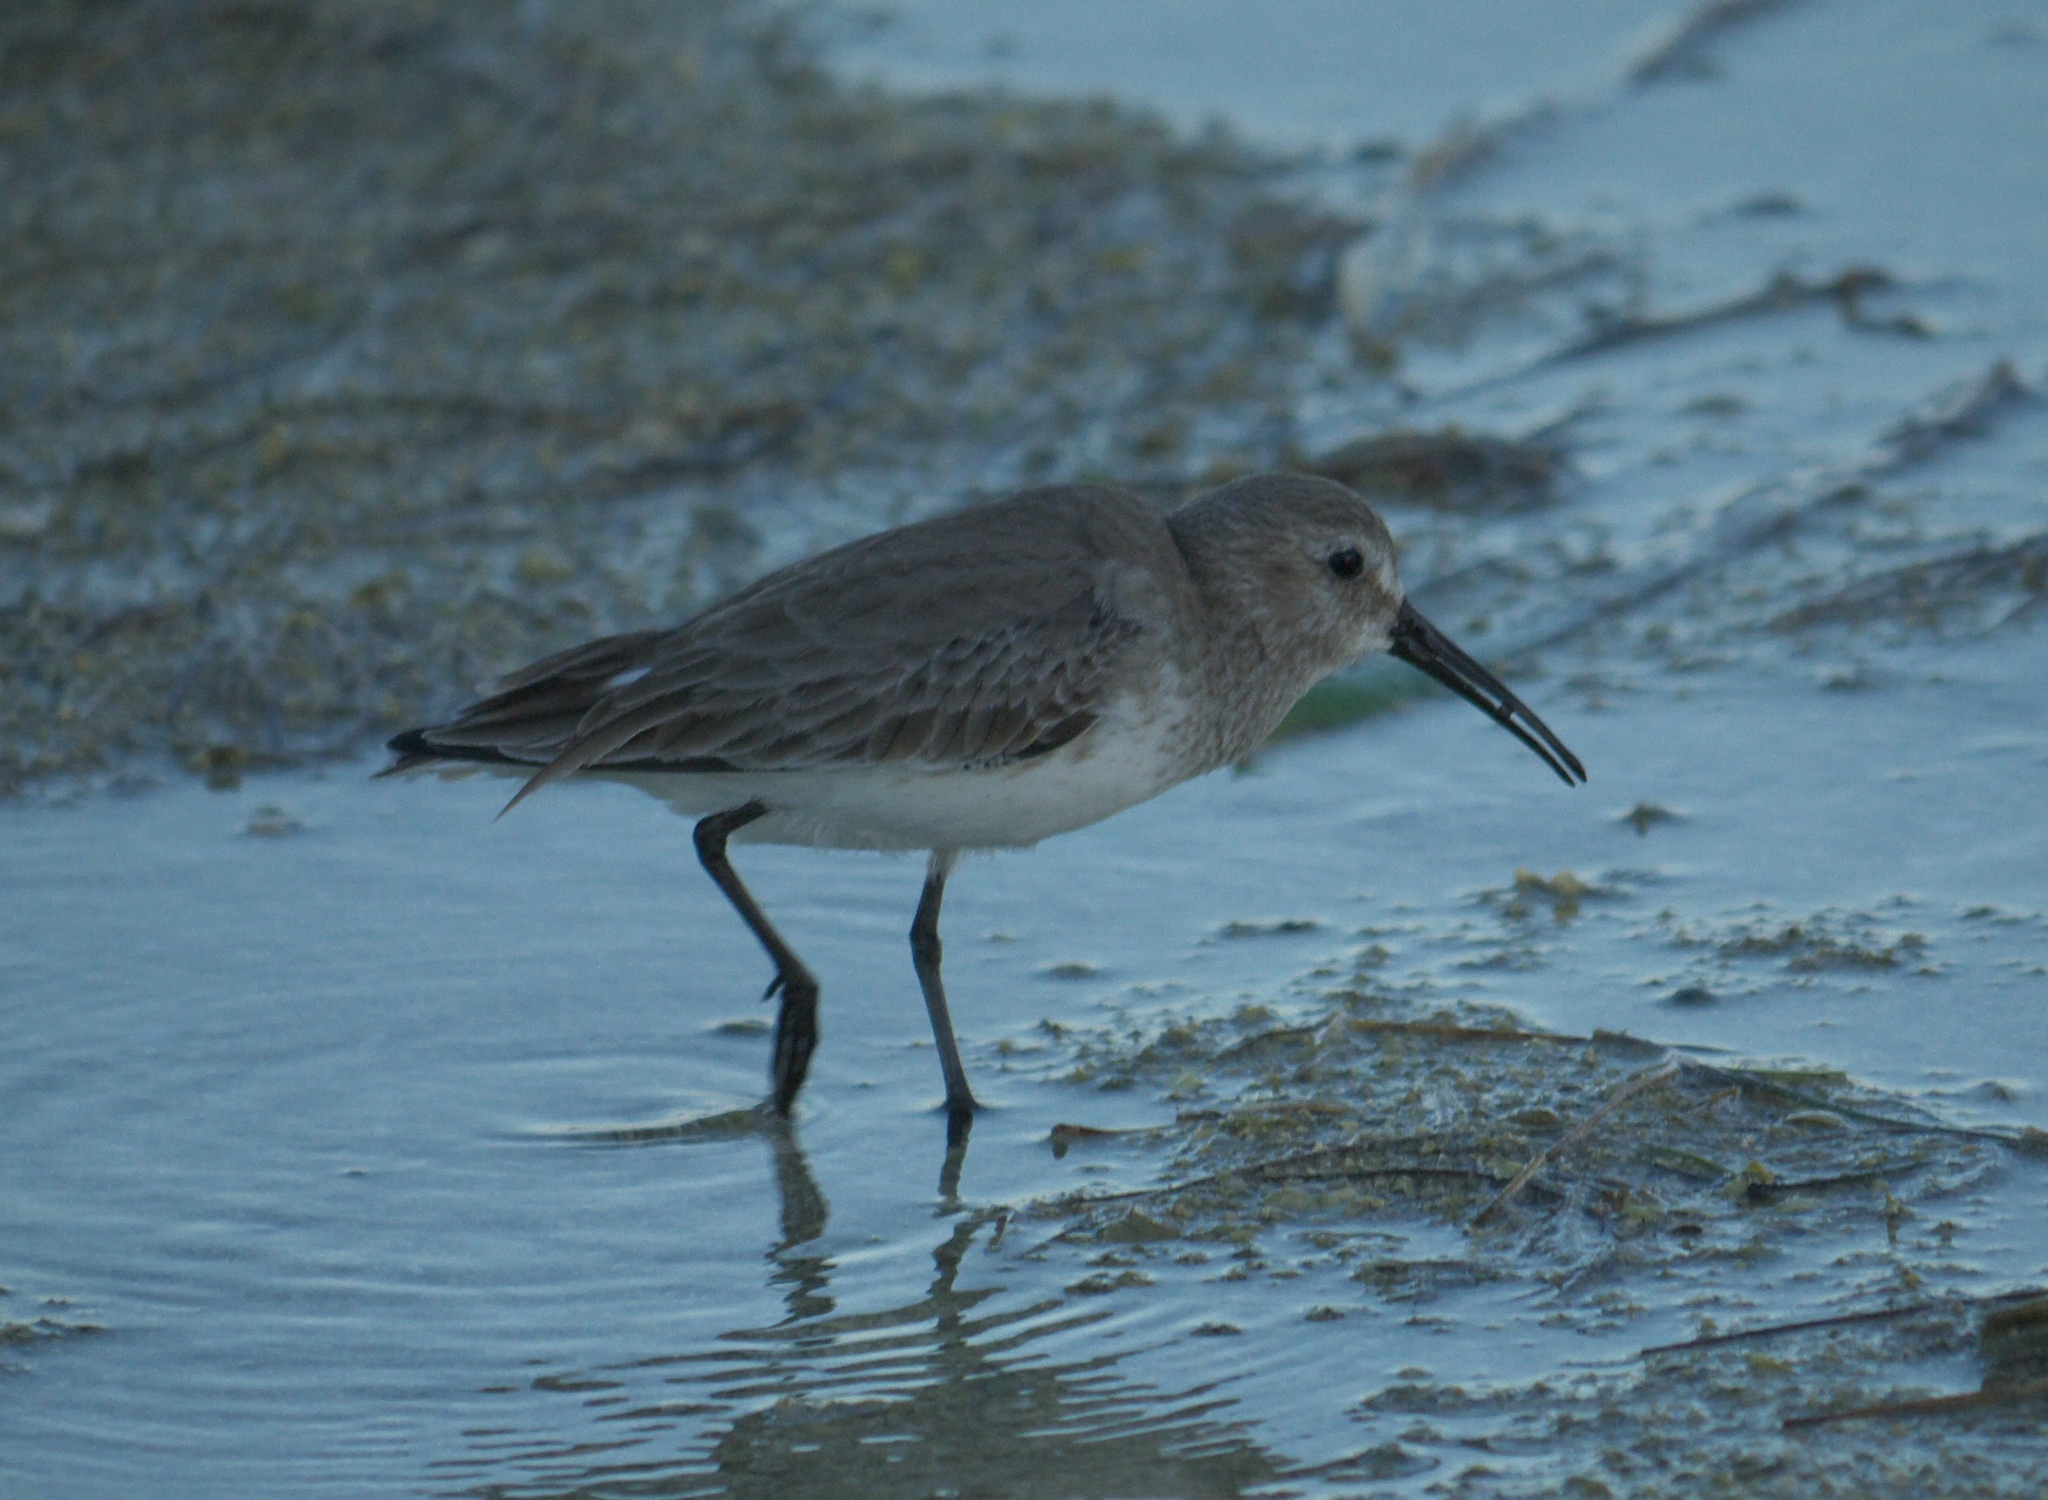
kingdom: Animalia
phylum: Chordata
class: Aves
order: Charadriiformes
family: Scolopacidae
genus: Calidris
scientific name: Calidris alpina
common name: Dunlin
